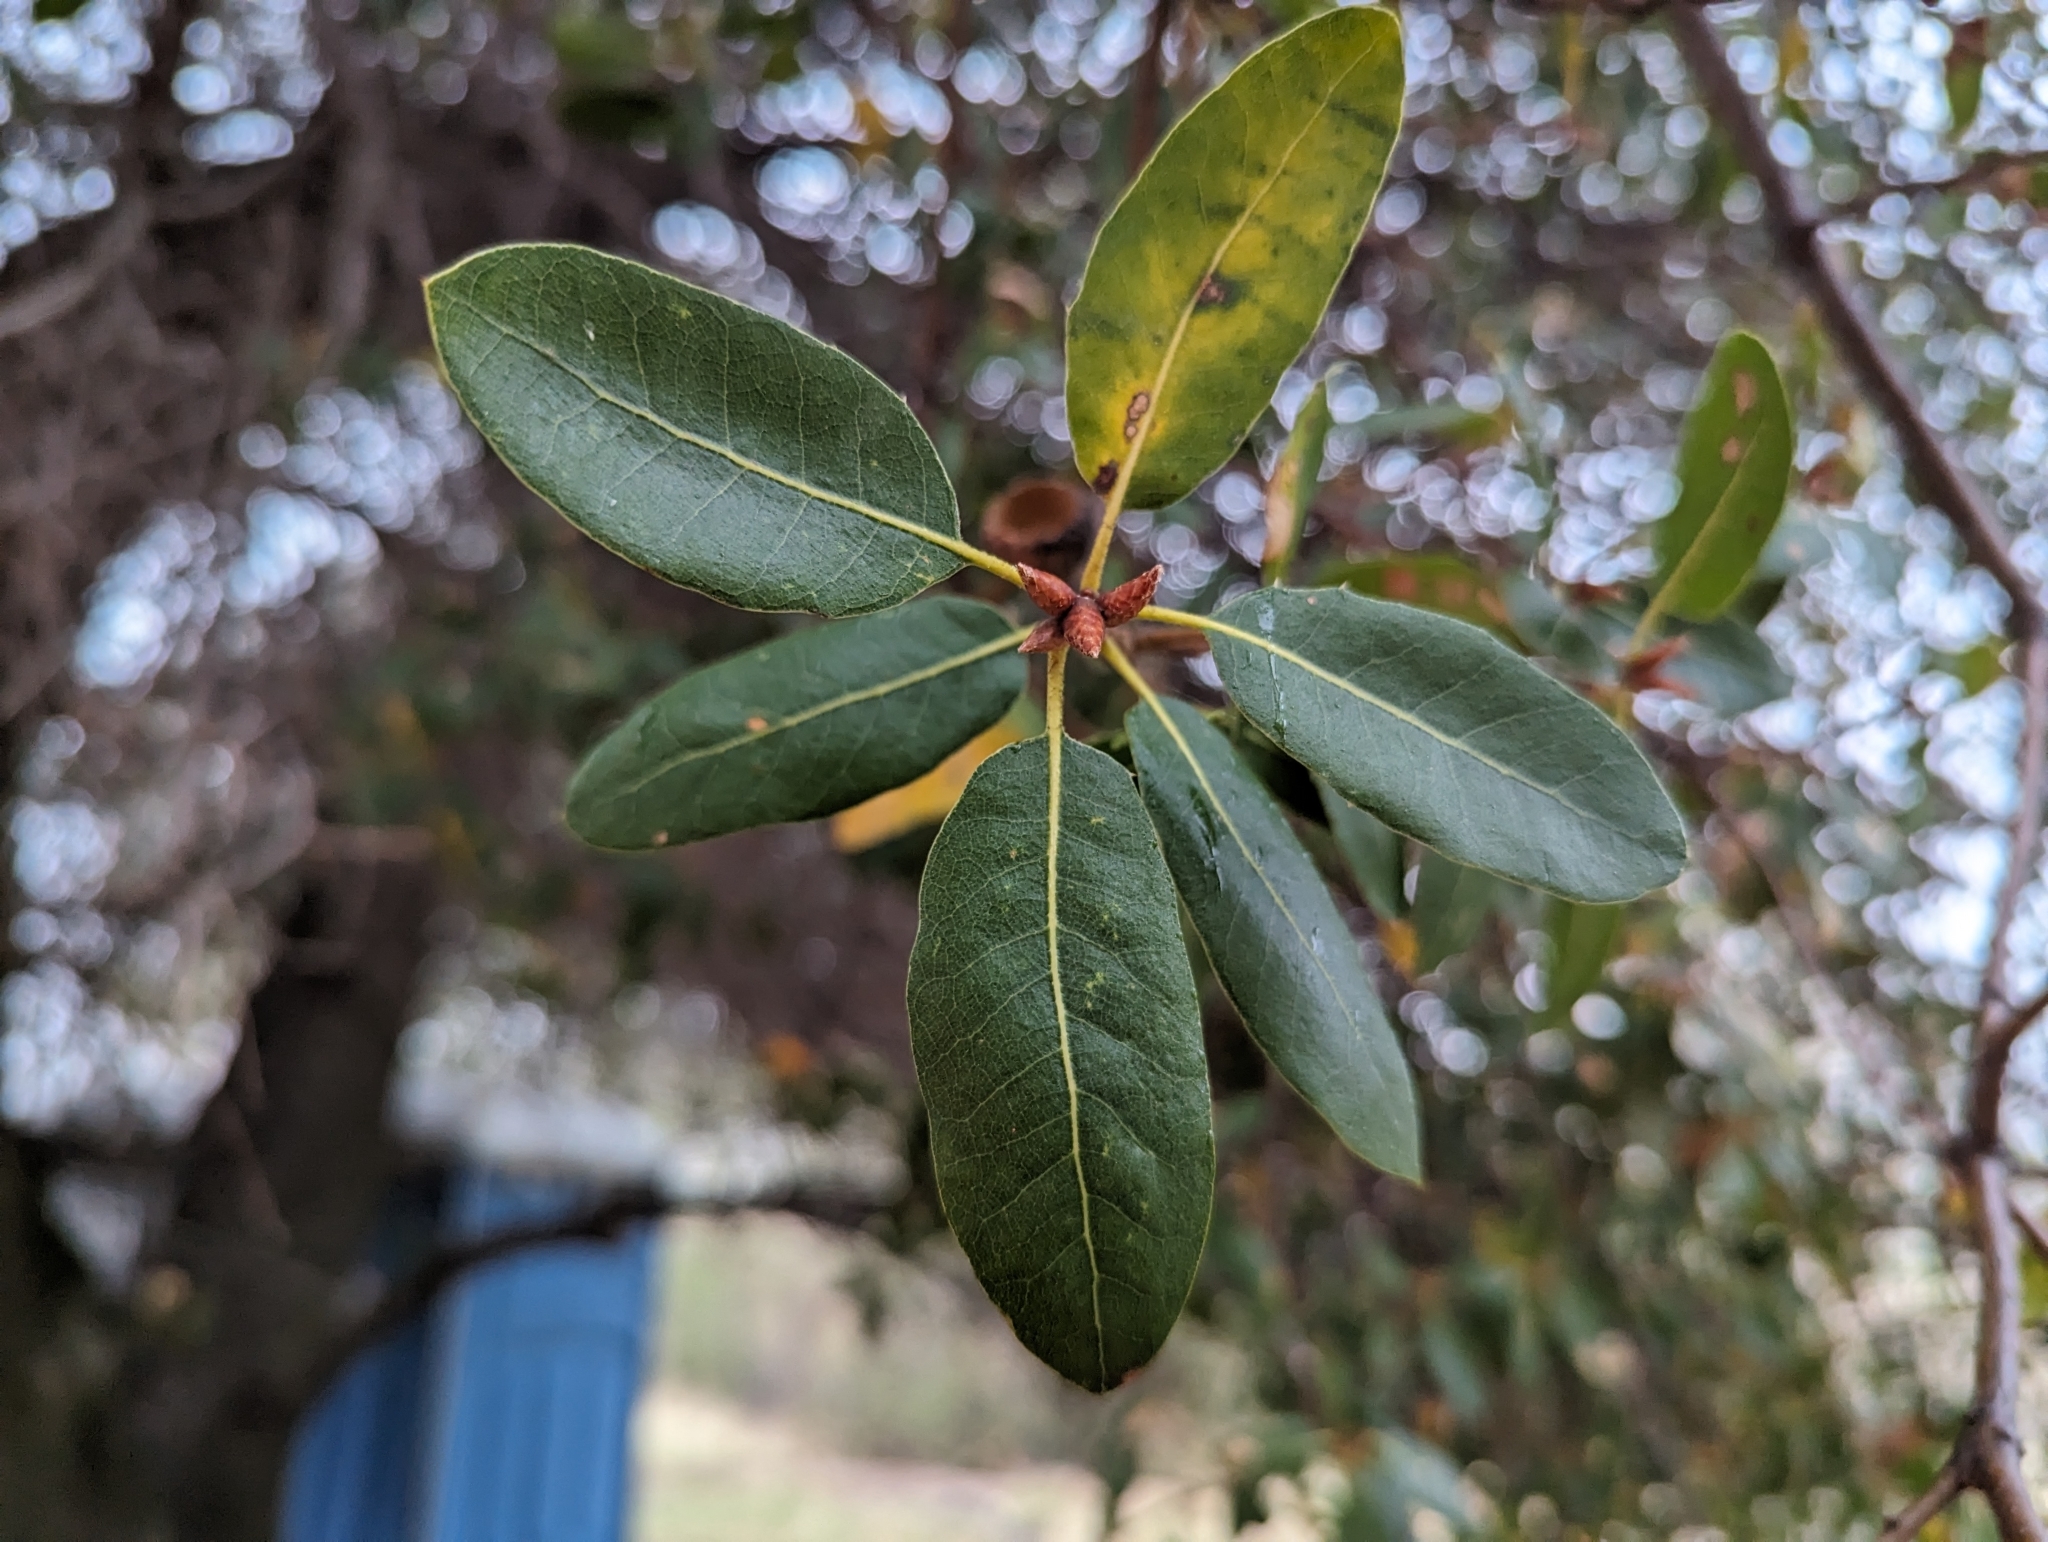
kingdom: Plantae
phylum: Tracheophyta
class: Magnoliopsida
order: Fagales
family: Fagaceae
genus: Quercus
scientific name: Quercus wislizeni
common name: Interior live oak
